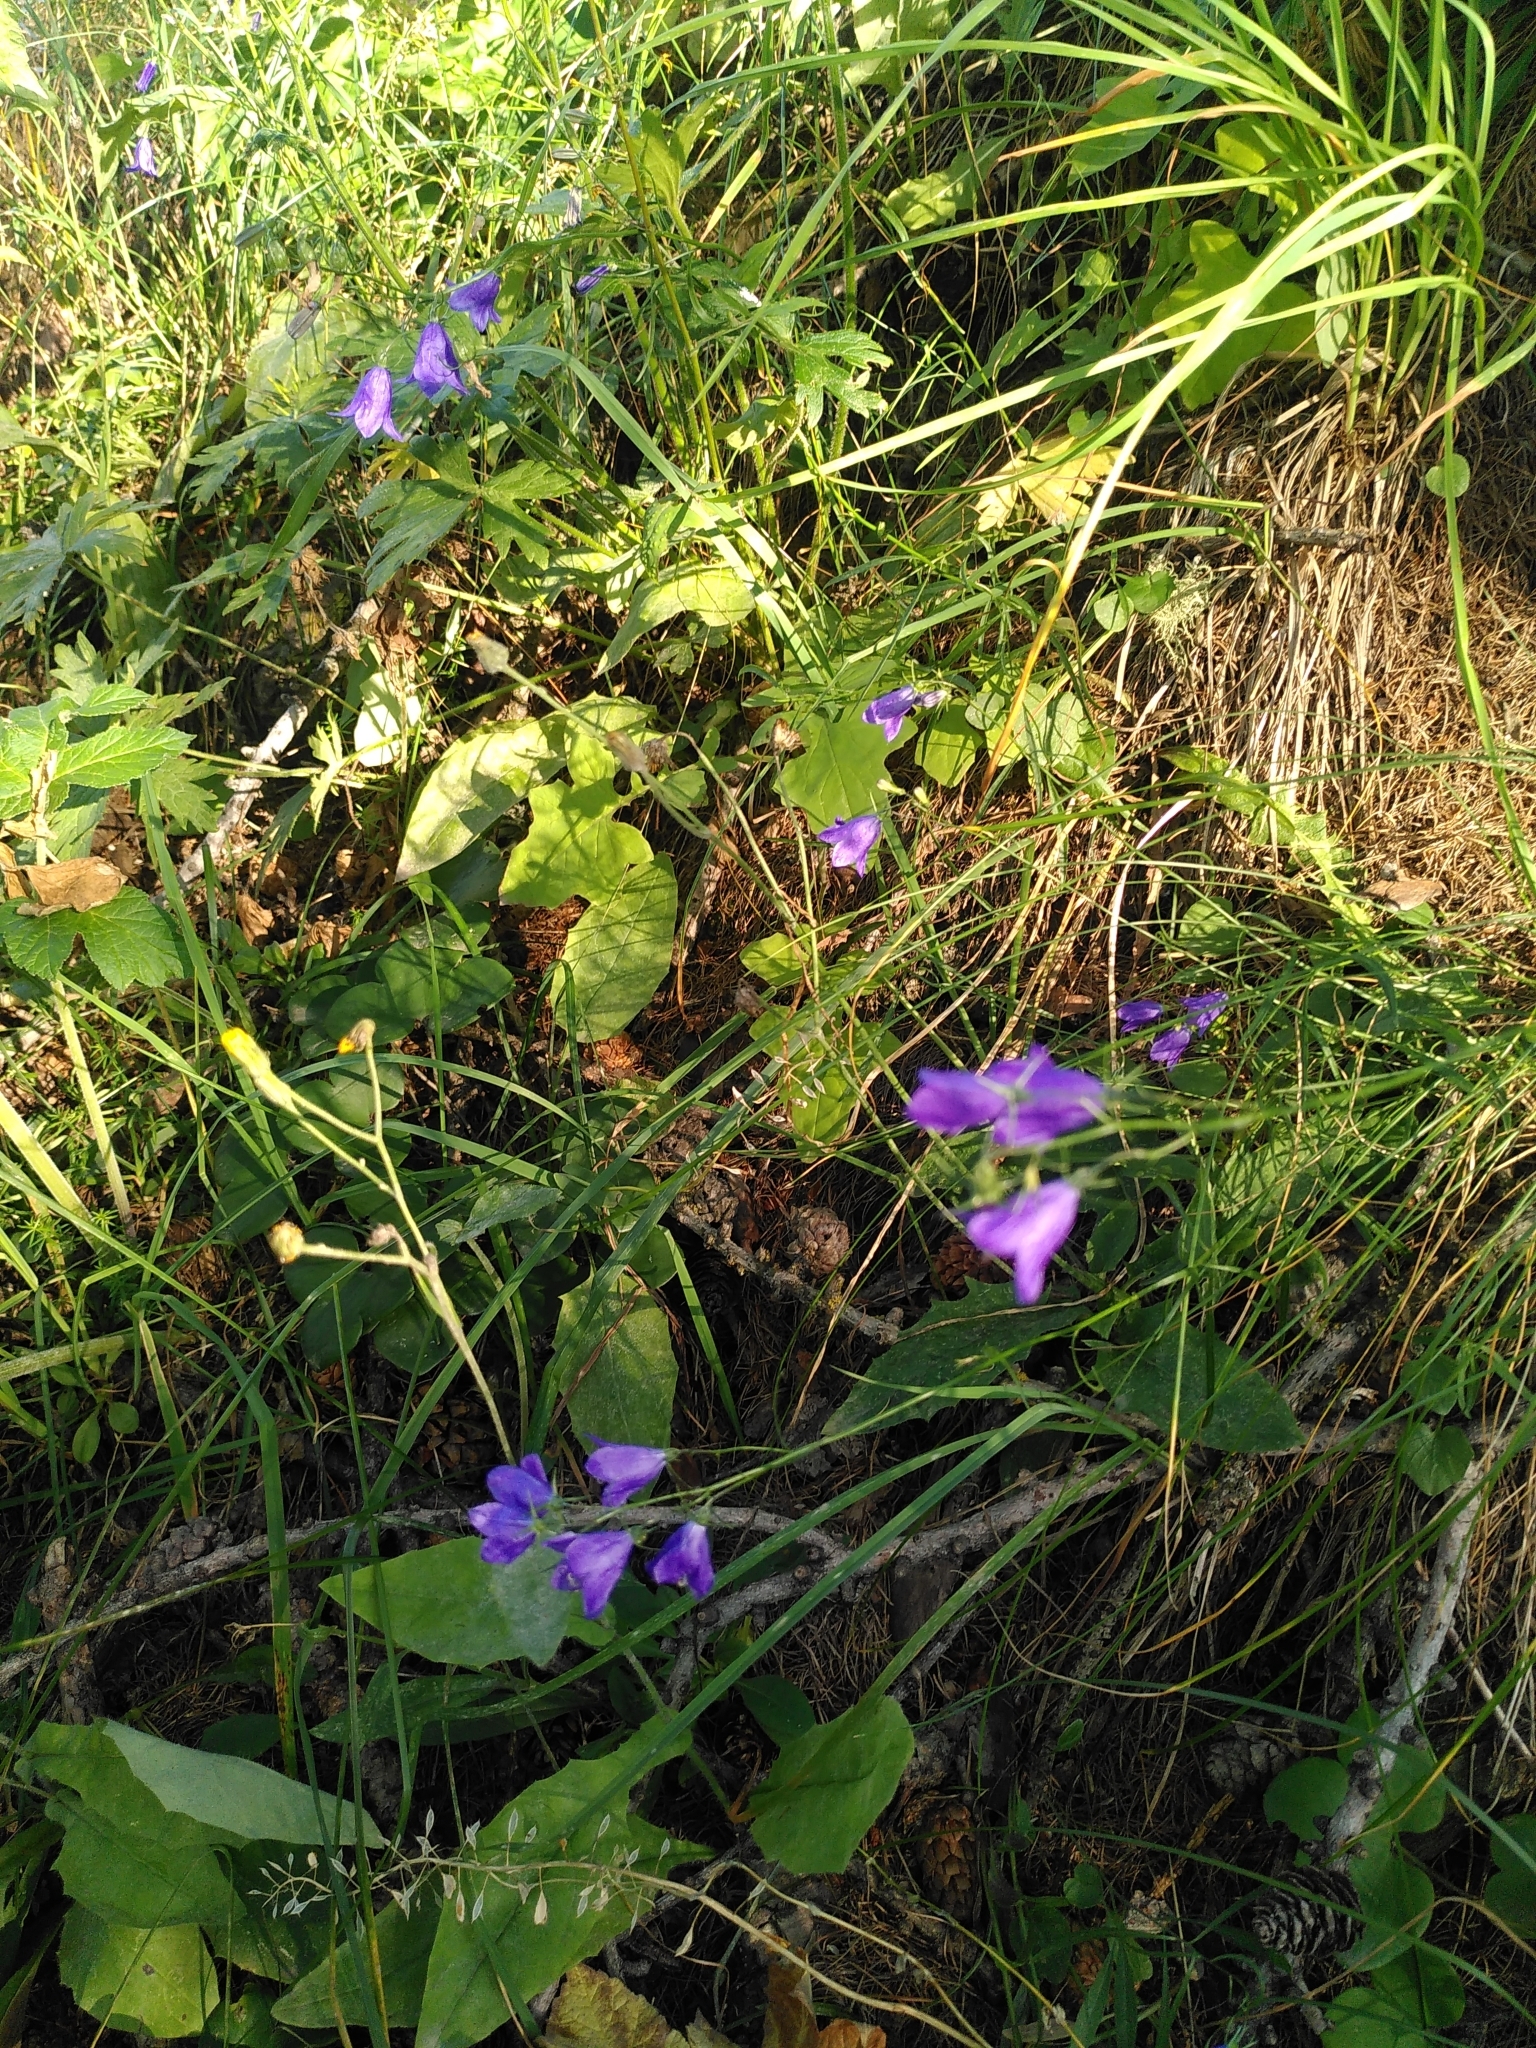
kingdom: Plantae
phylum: Tracheophyta
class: Magnoliopsida
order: Asterales
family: Campanulaceae
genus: Campanula
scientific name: Campanula rhomboidalis
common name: Broad-leaved harebell
